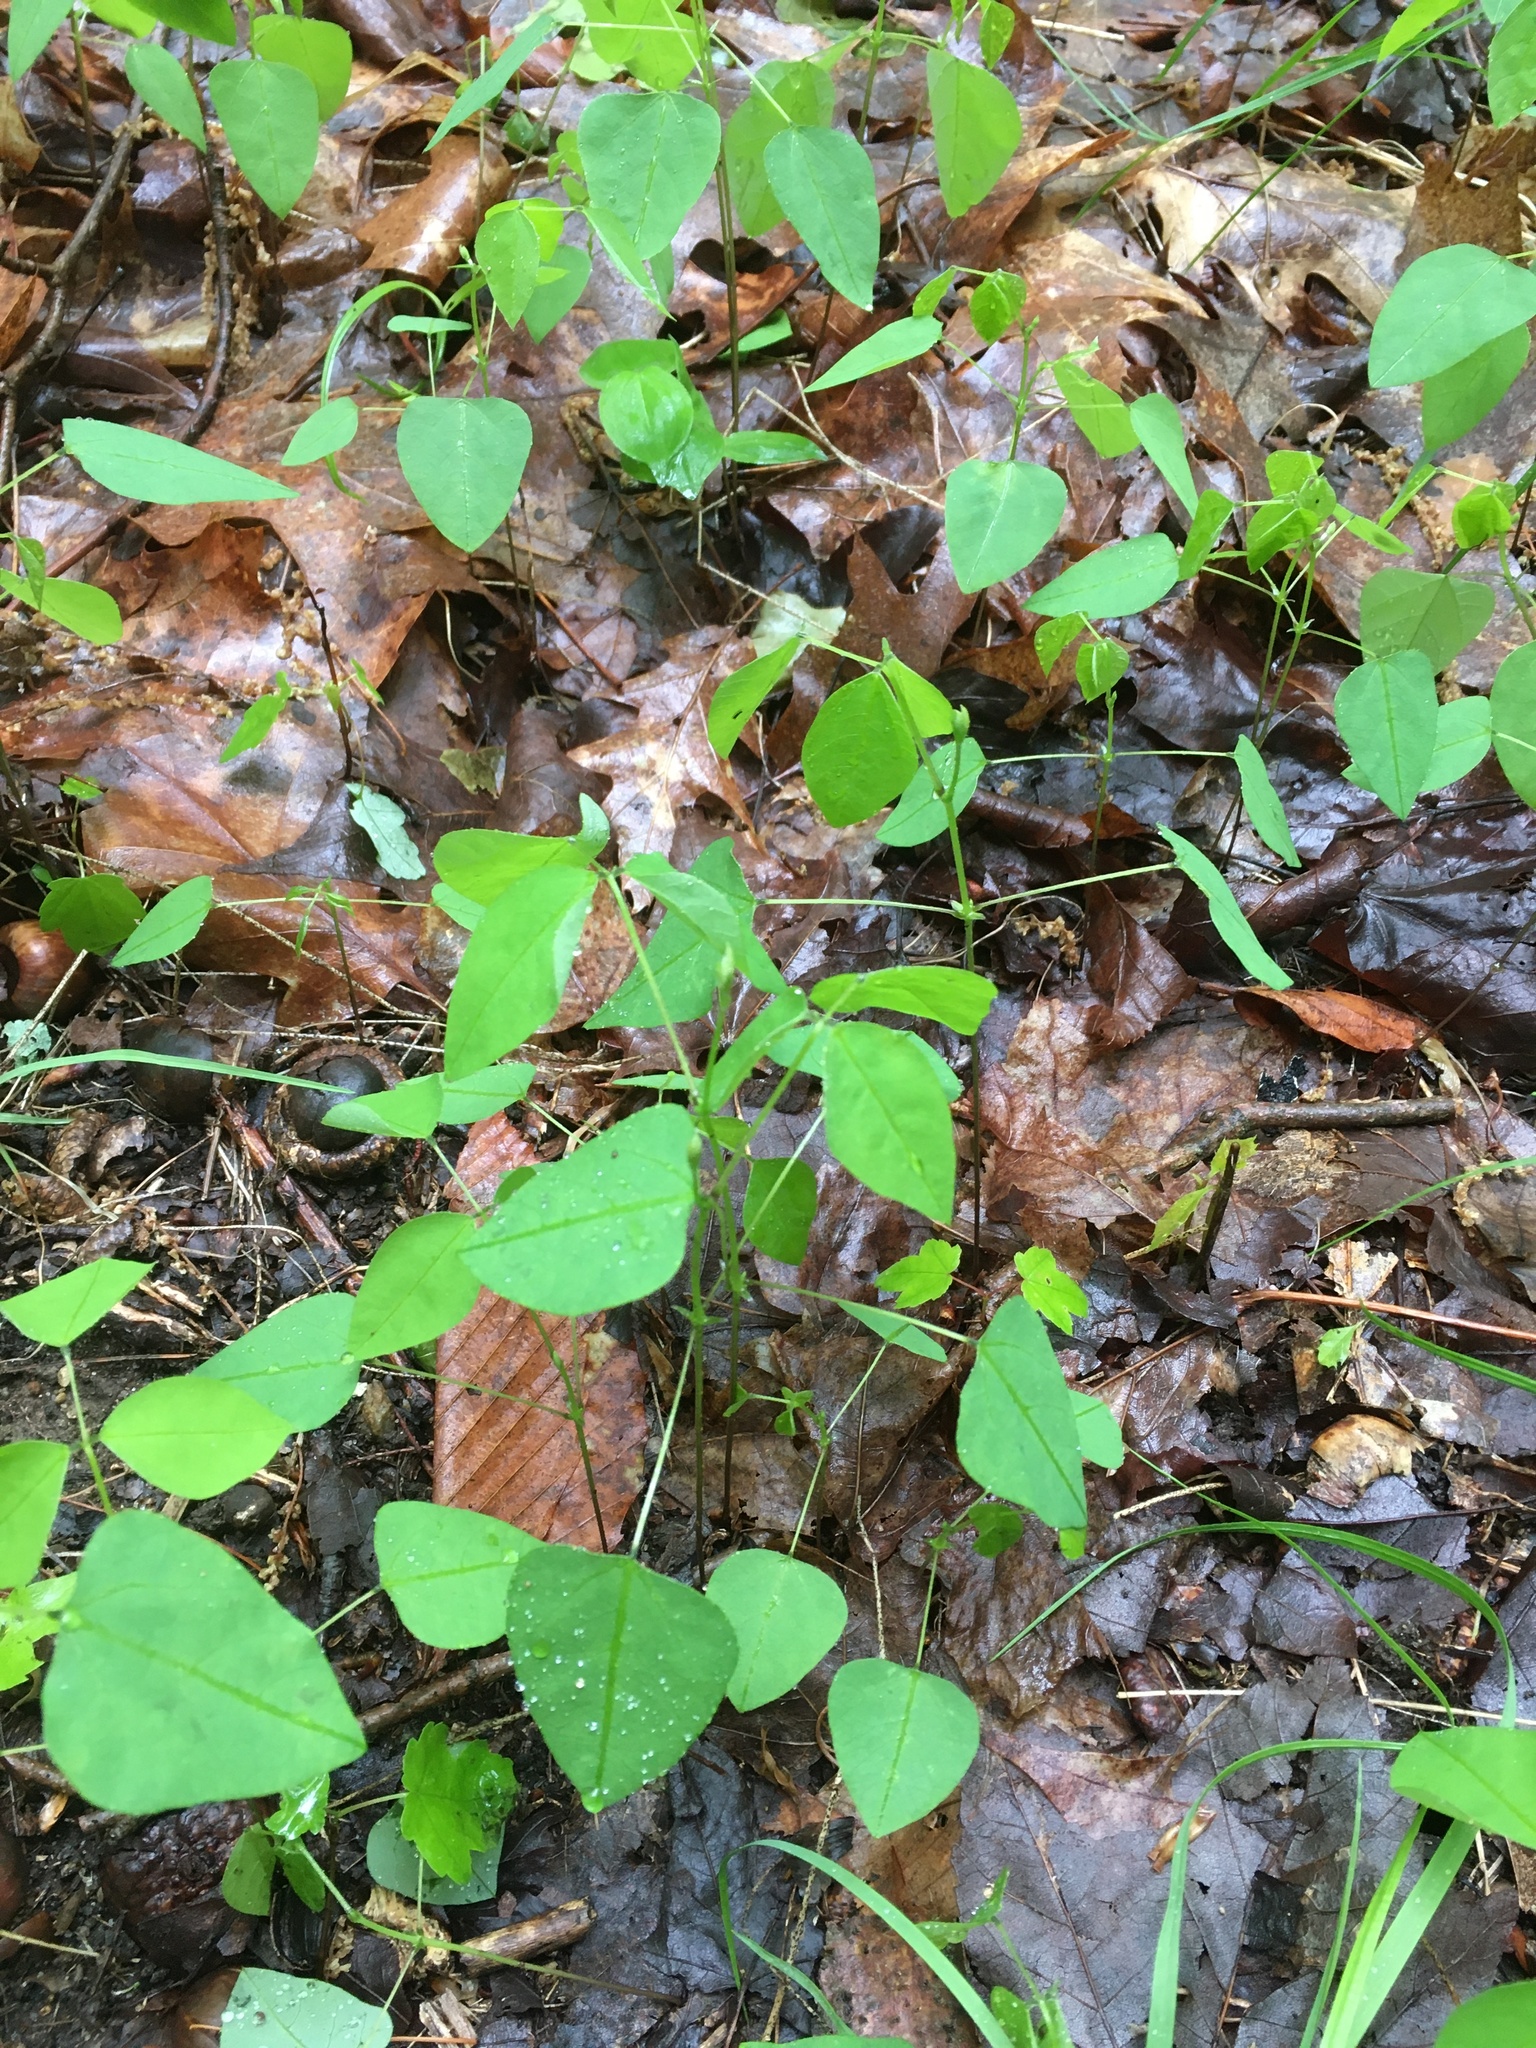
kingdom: Plantae
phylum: Tracheophyta
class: Magnoliopsida
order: Fabales
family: Fabaceae
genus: Amphicarpaea
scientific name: Amphicarpaea bracteata
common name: American hog peanut
